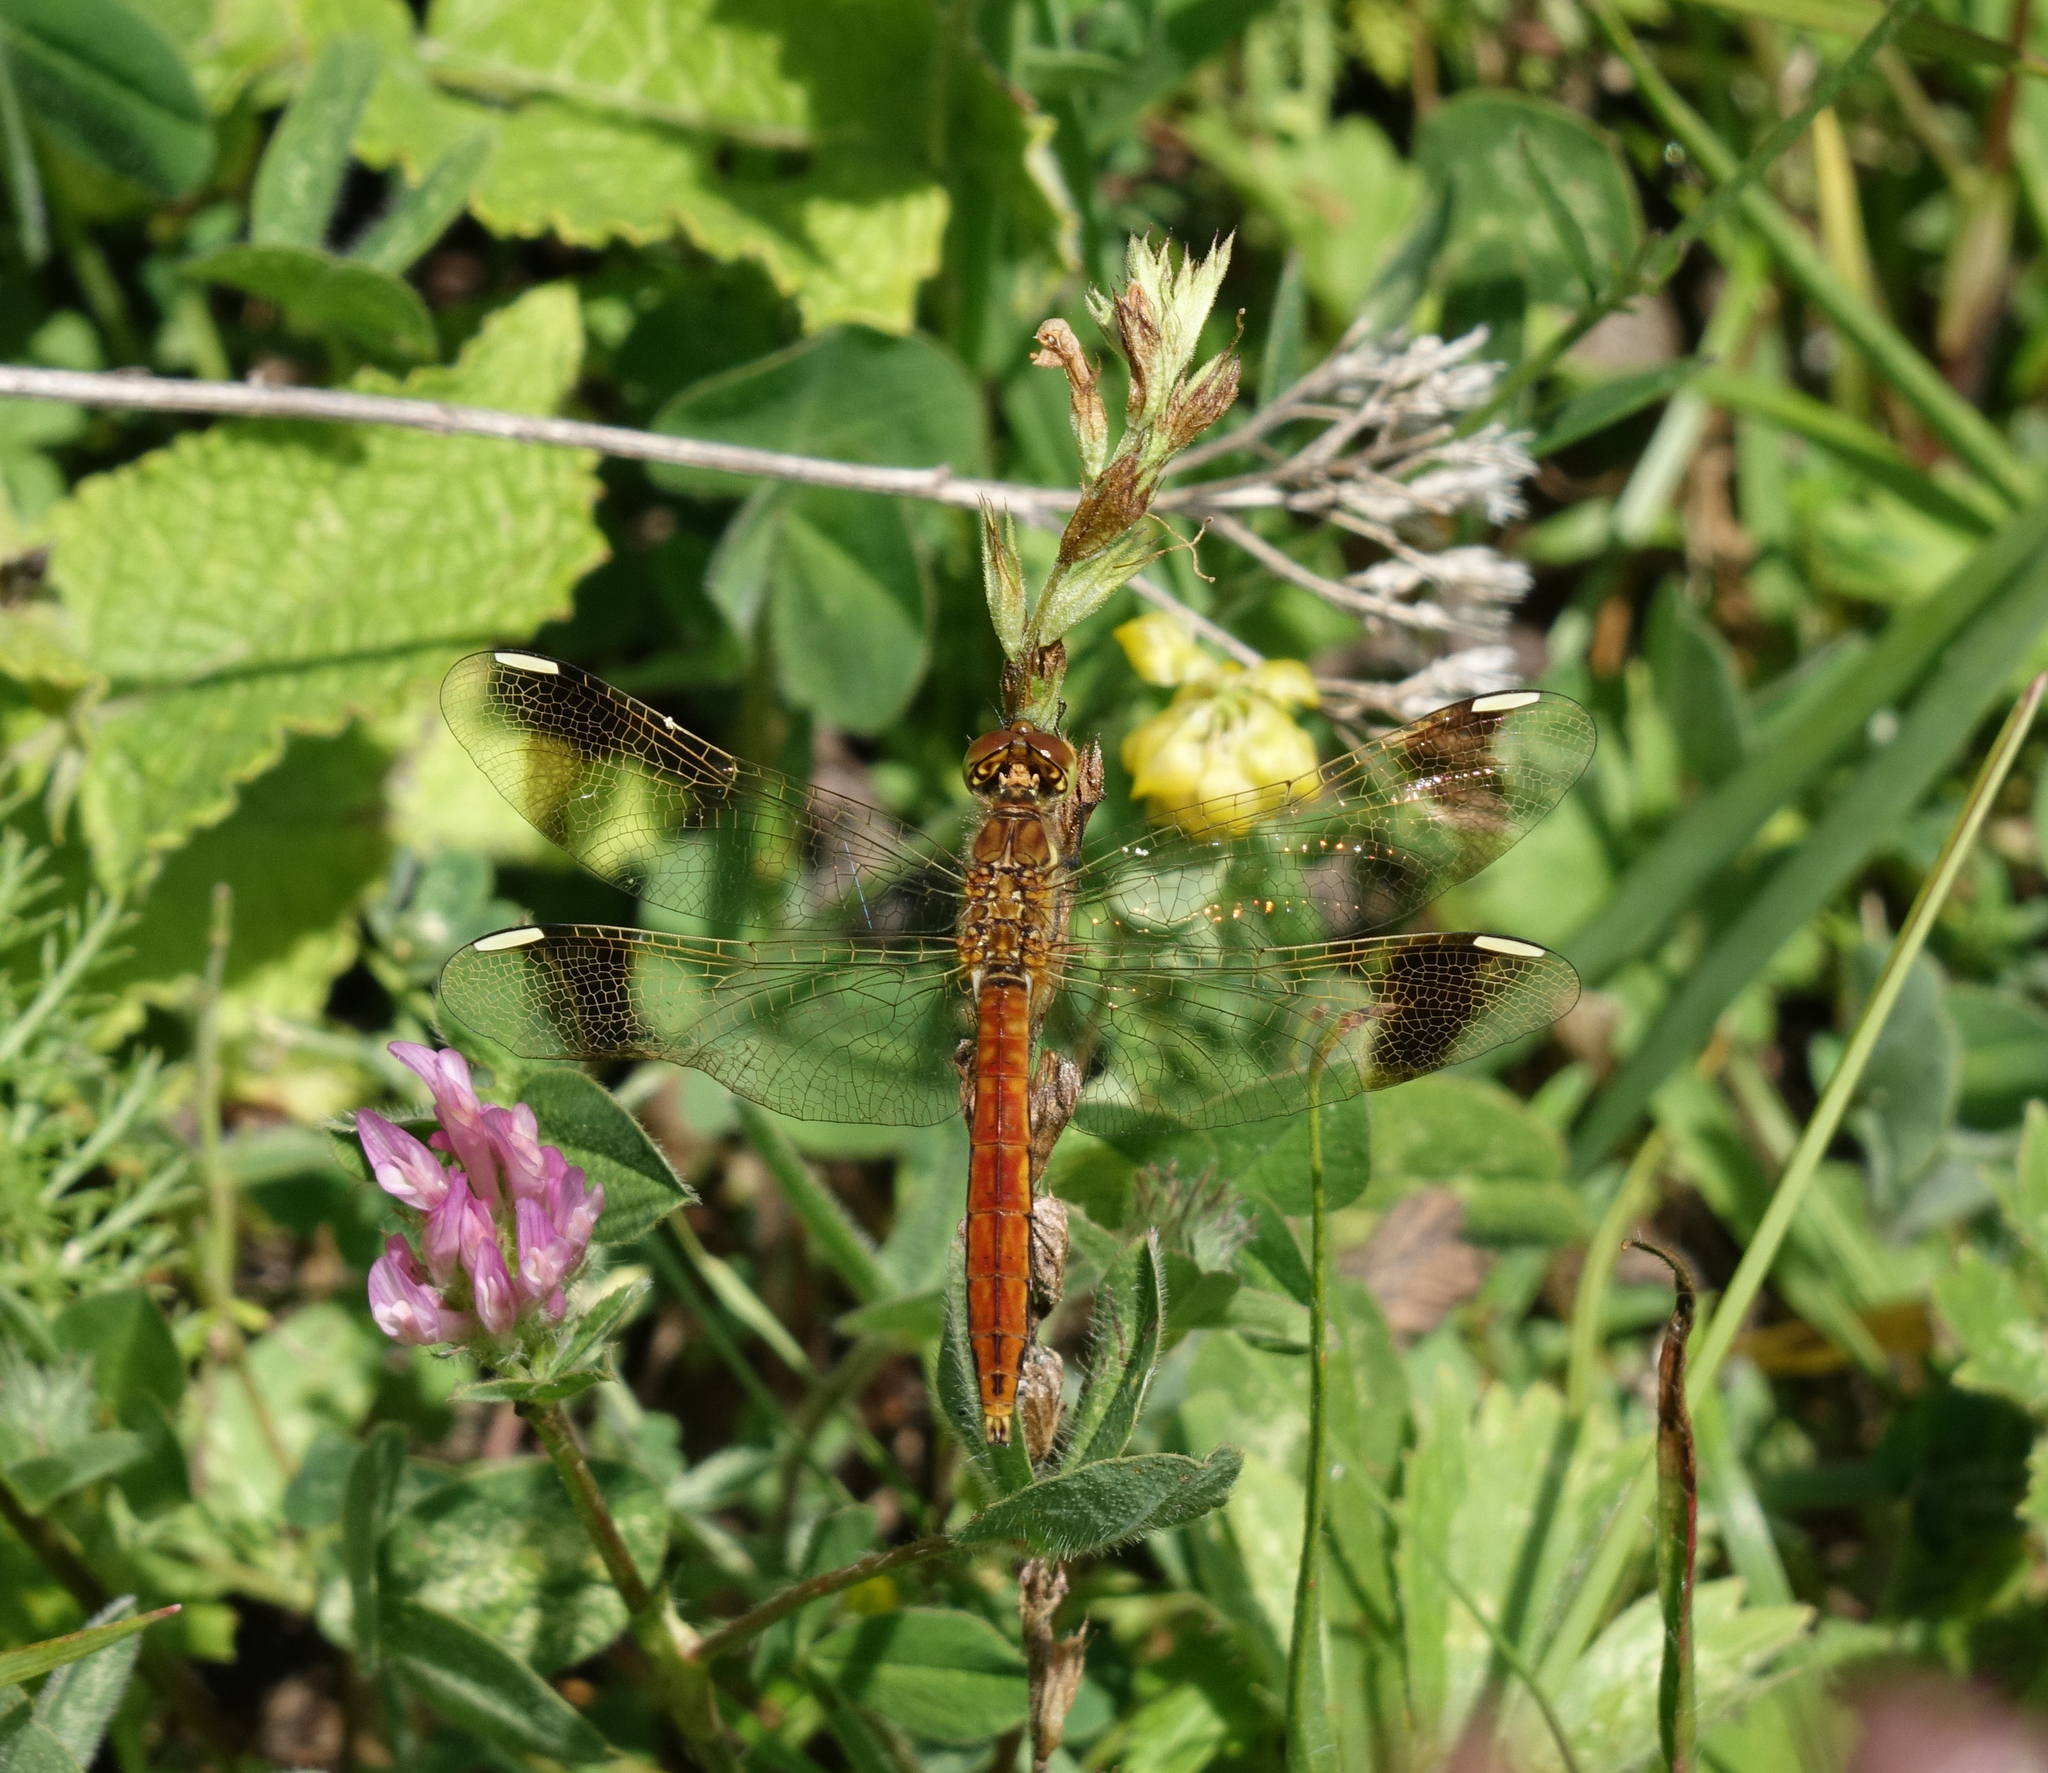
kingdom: Animalia
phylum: Arthropoda
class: Insecta
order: Odonata
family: Libellulidae
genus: Sympetrum
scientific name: Sympetrum pedemontanum
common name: Banded darter
